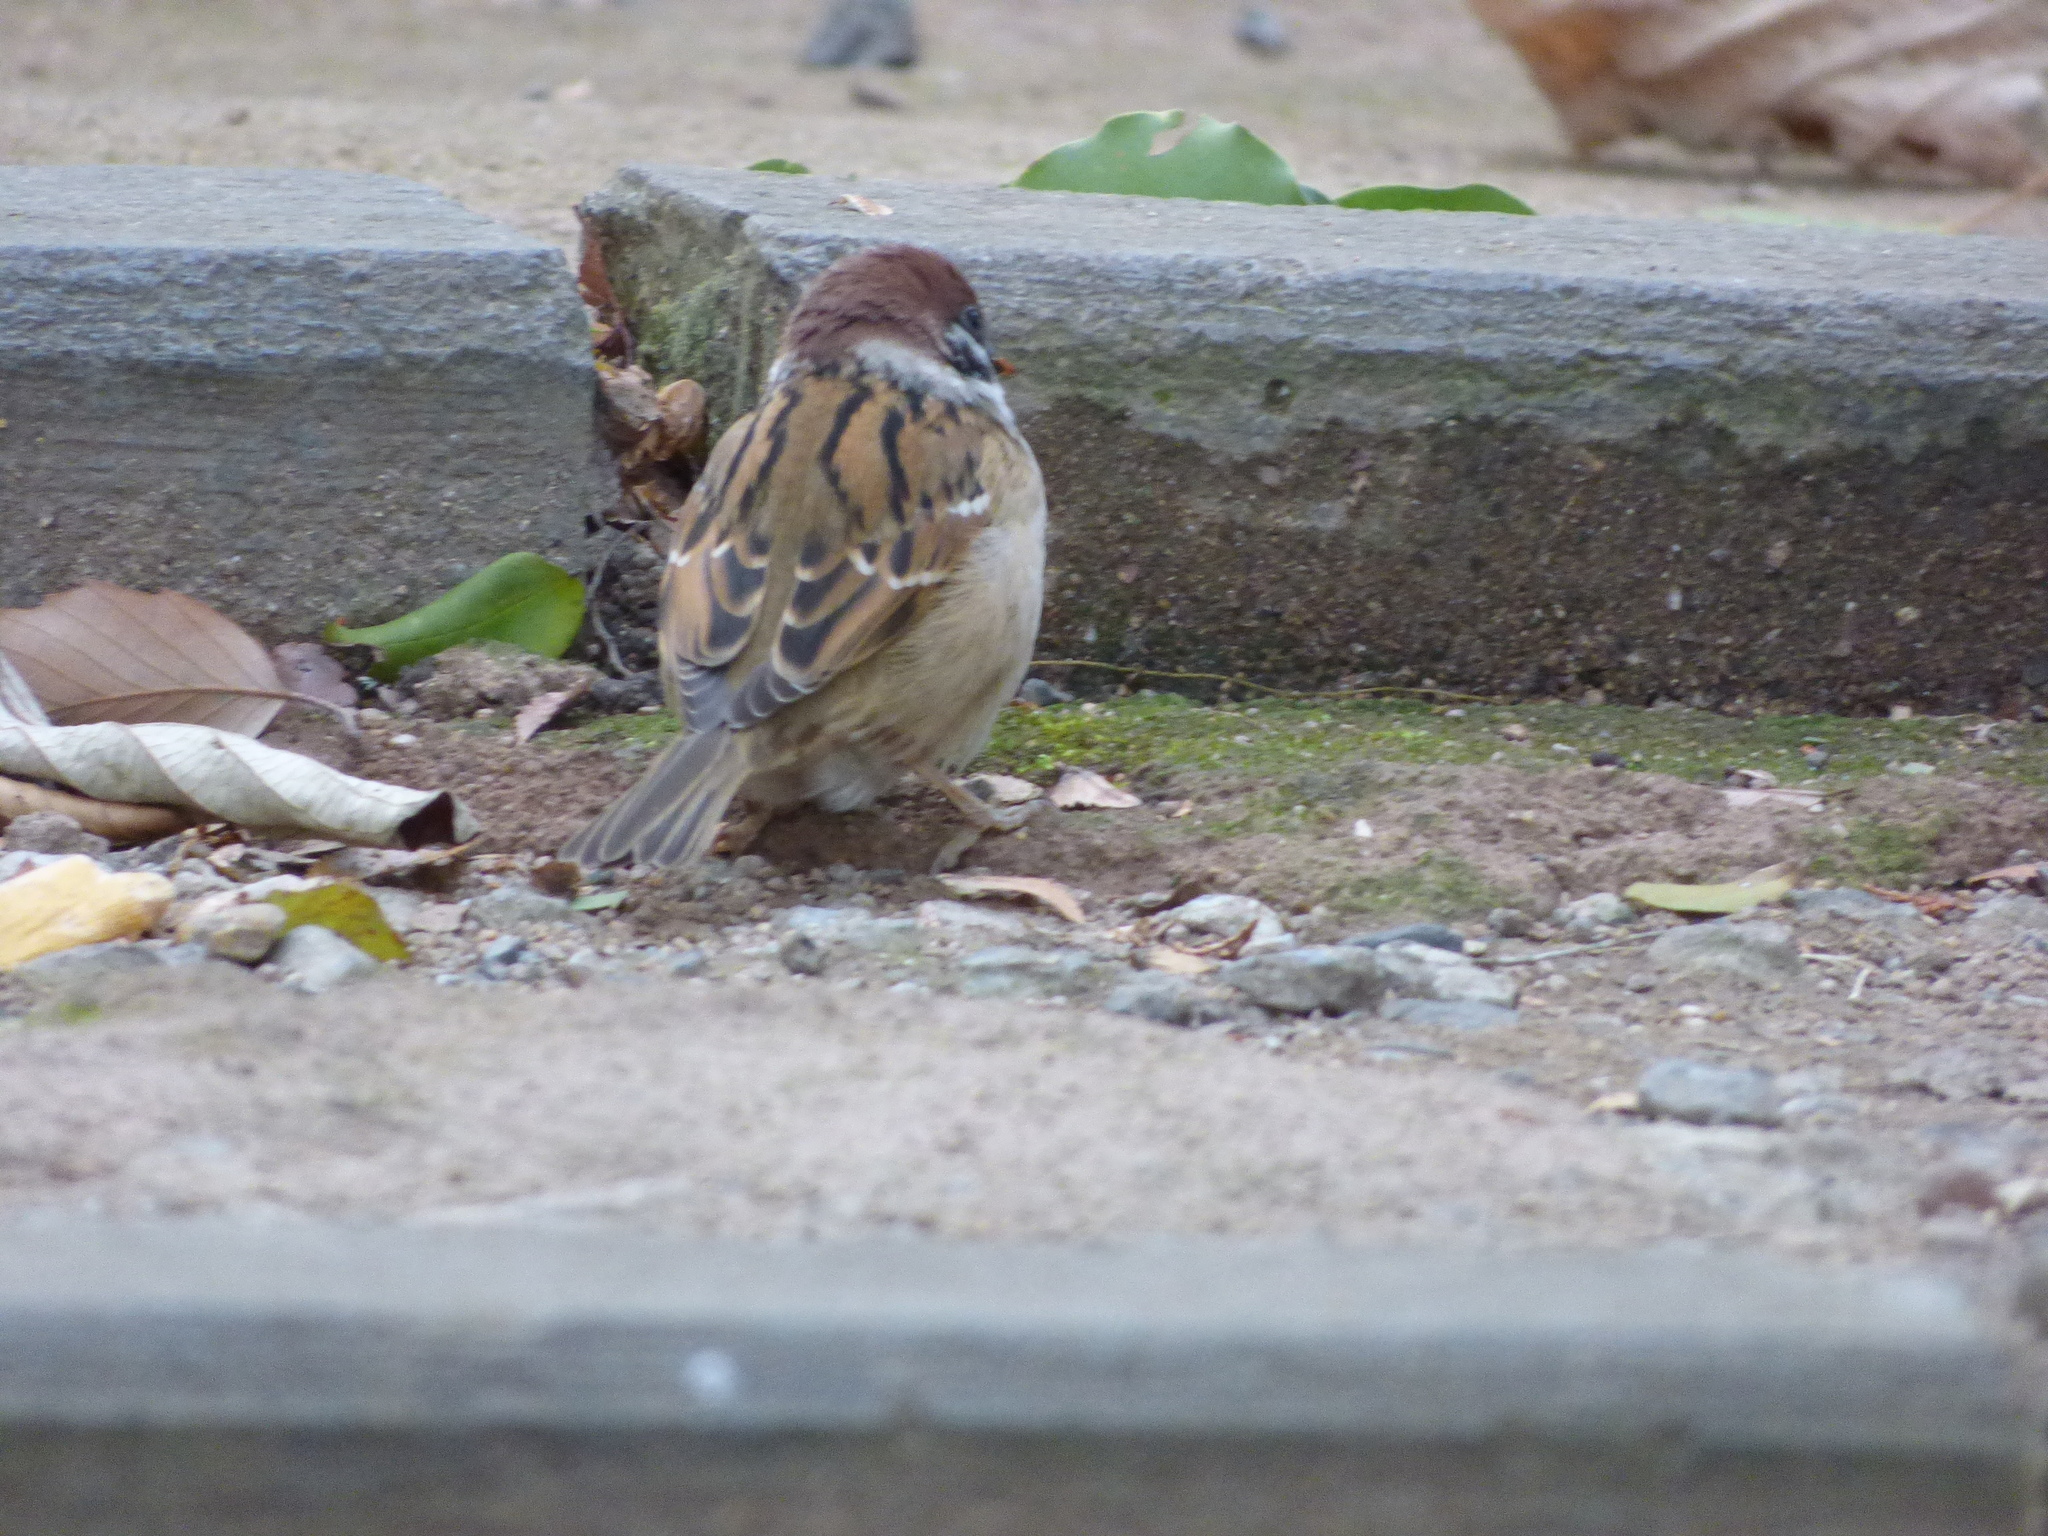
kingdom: Animalia
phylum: Chordata
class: Aves
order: Passeriformes
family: Passeridae
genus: Passer
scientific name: Passer montanus
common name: Eurasian tree sparrow
